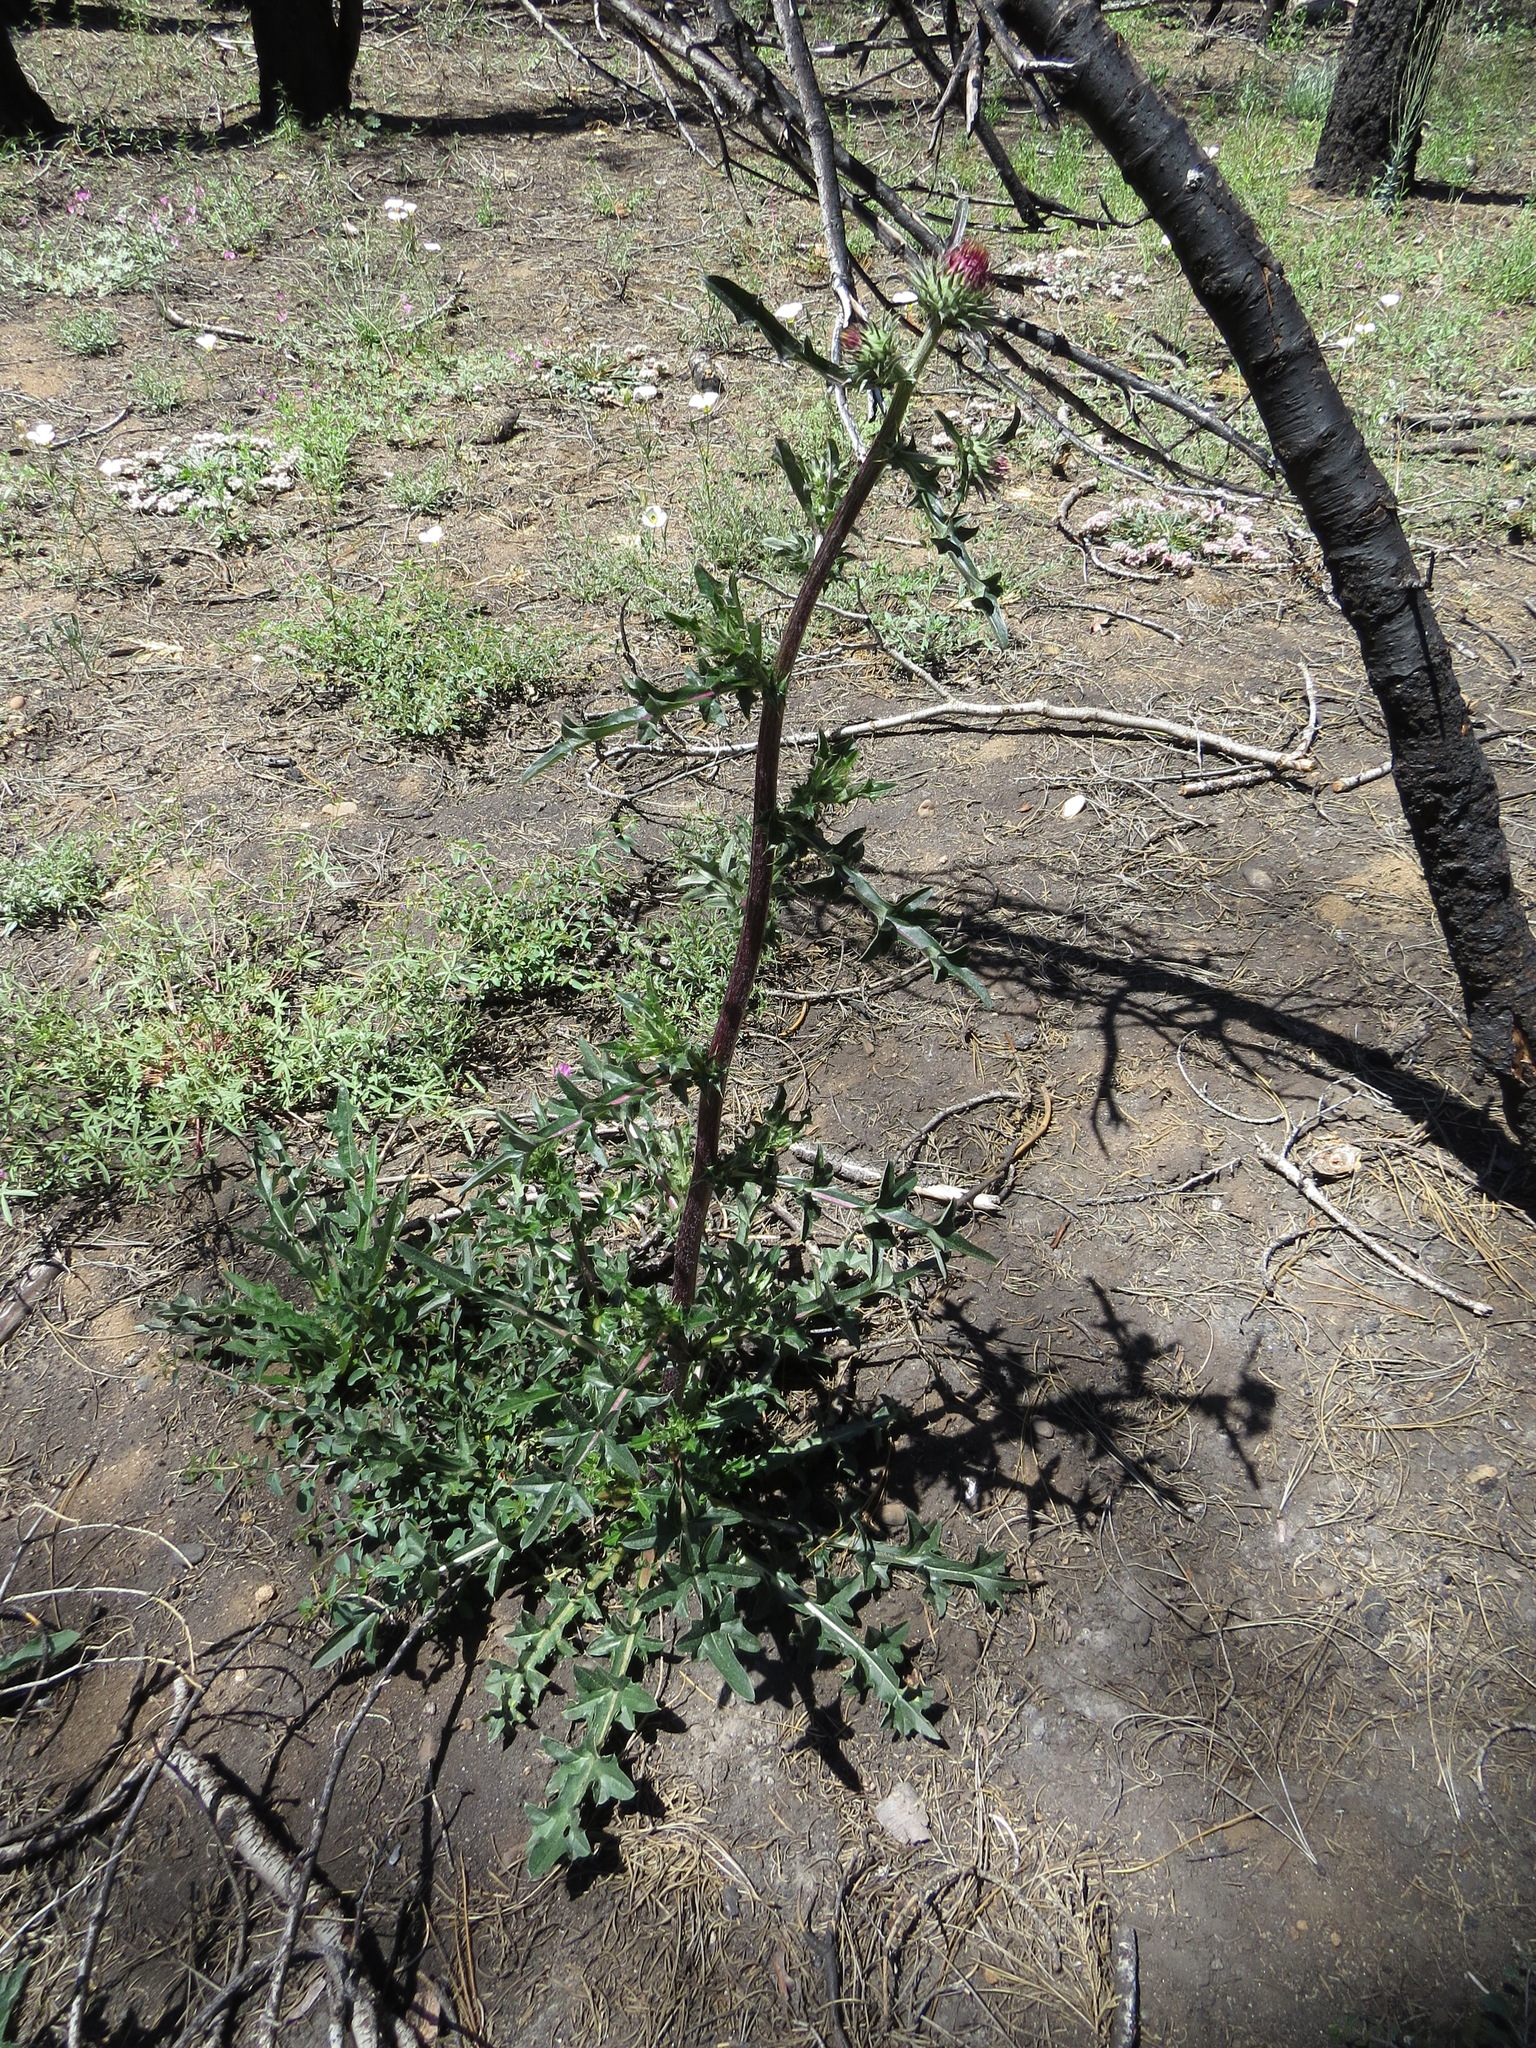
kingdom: Plantae
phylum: Tracheophyta
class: Magnoliopsida
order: Asterales
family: Asteraceae
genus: Cirsium
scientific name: Cirsium andersonii
